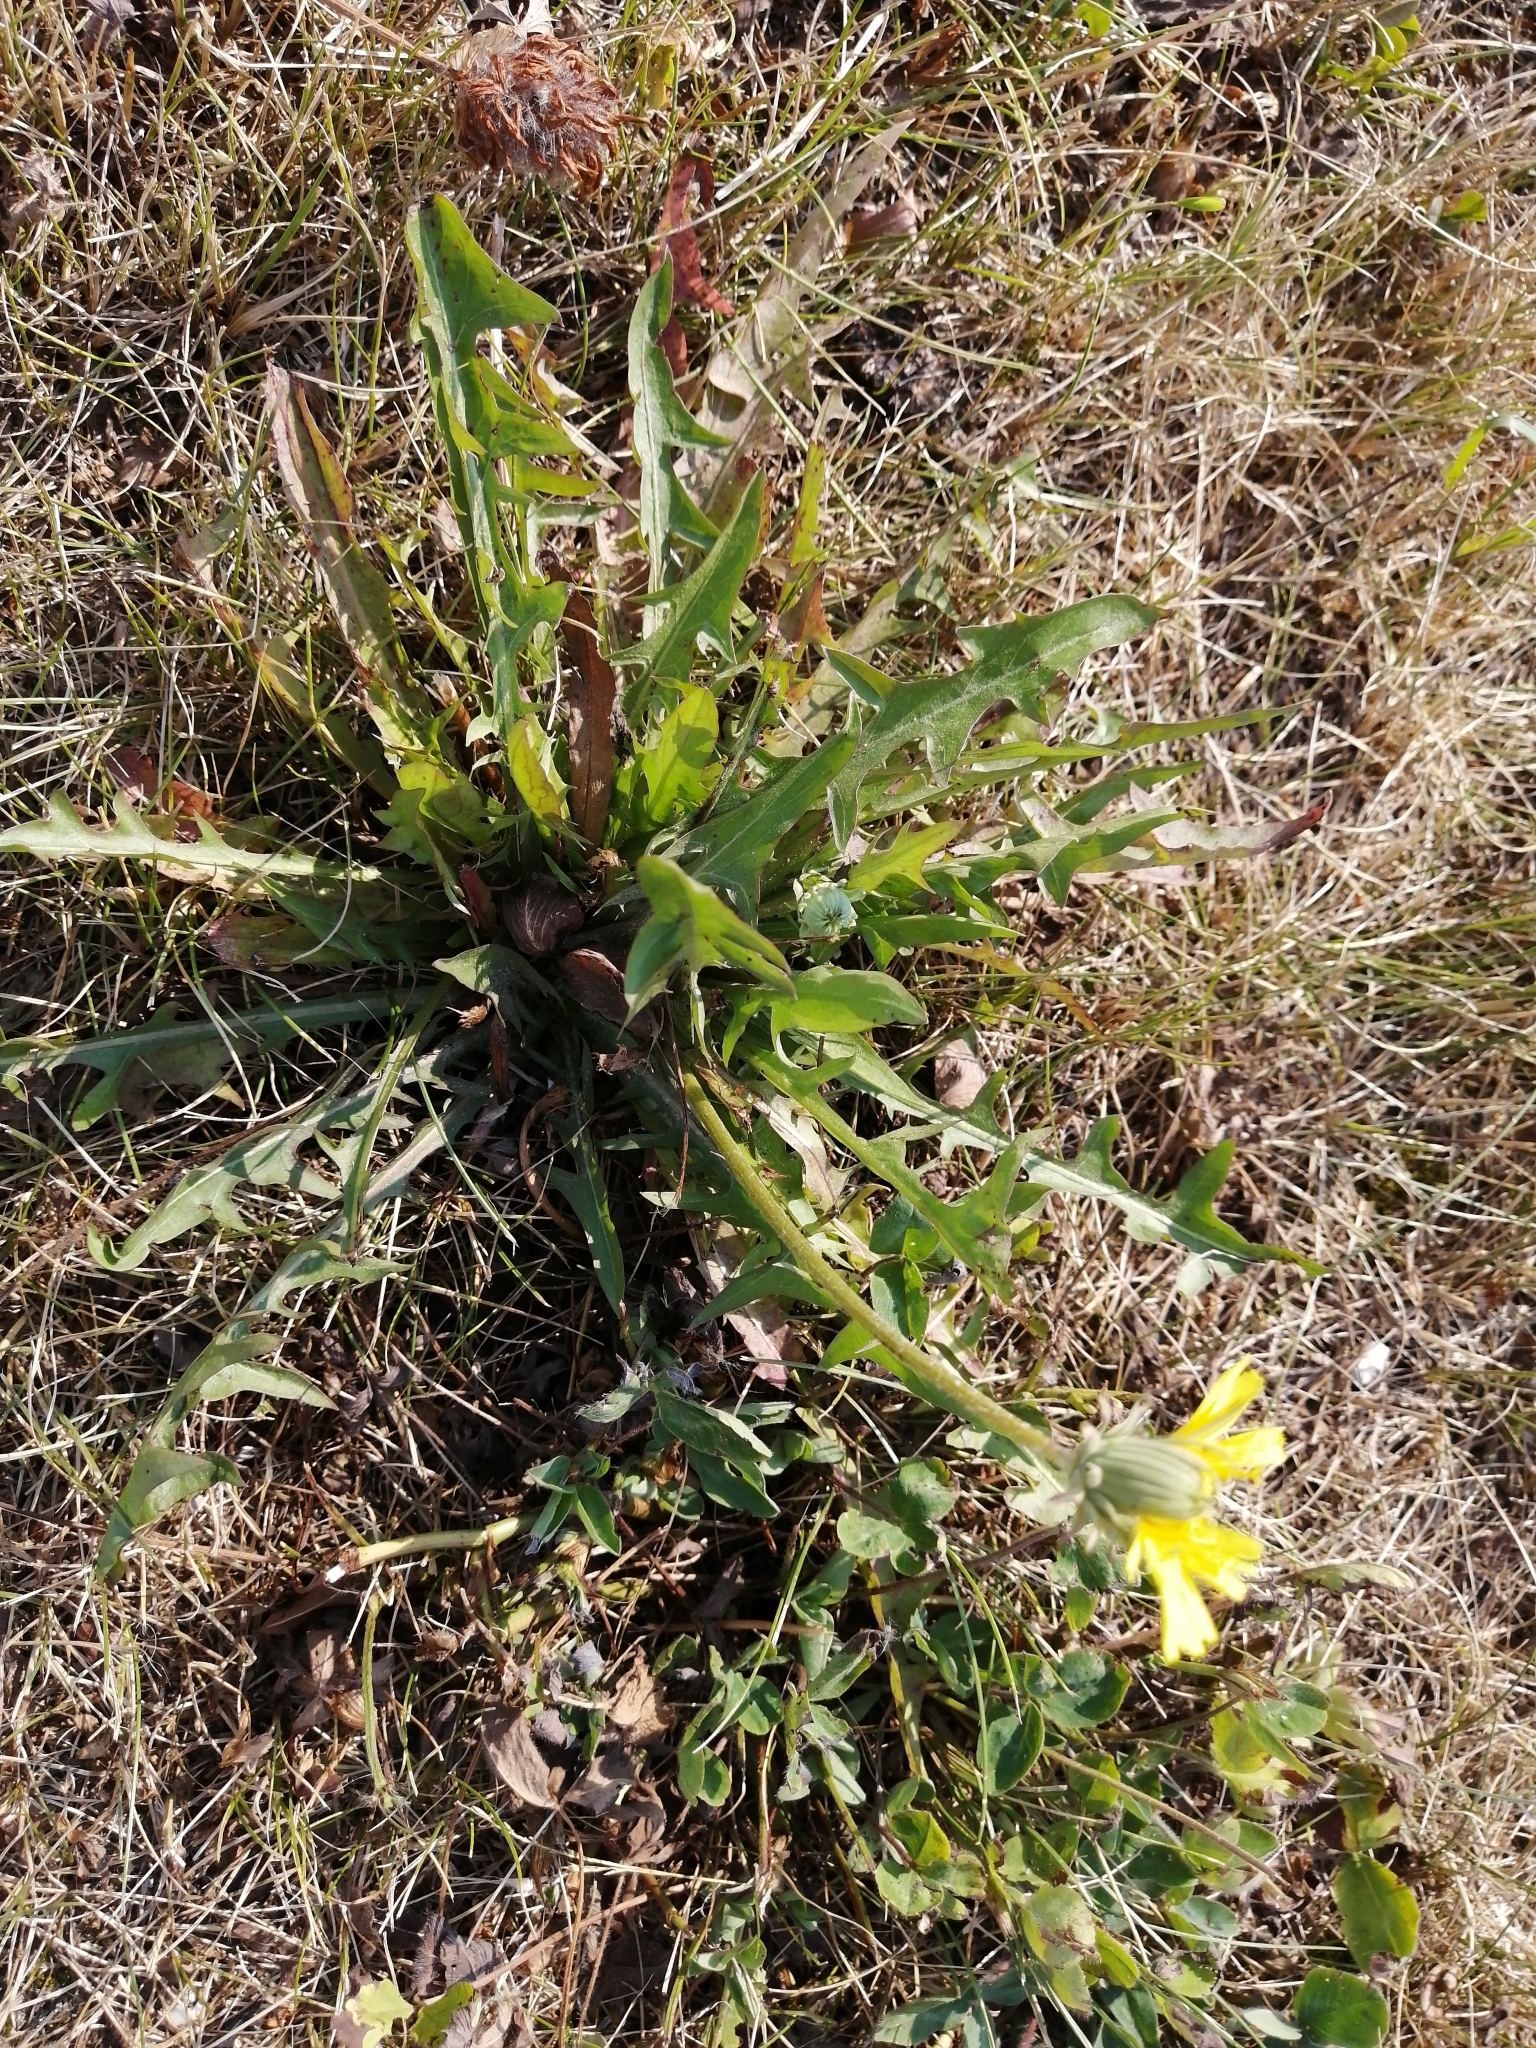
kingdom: Plantae
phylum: Tracheophyta
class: Magnoliopsida
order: Asterales
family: Asteraceae
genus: Taraxacum
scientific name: Taraxacum officinale
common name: Common dandelion
